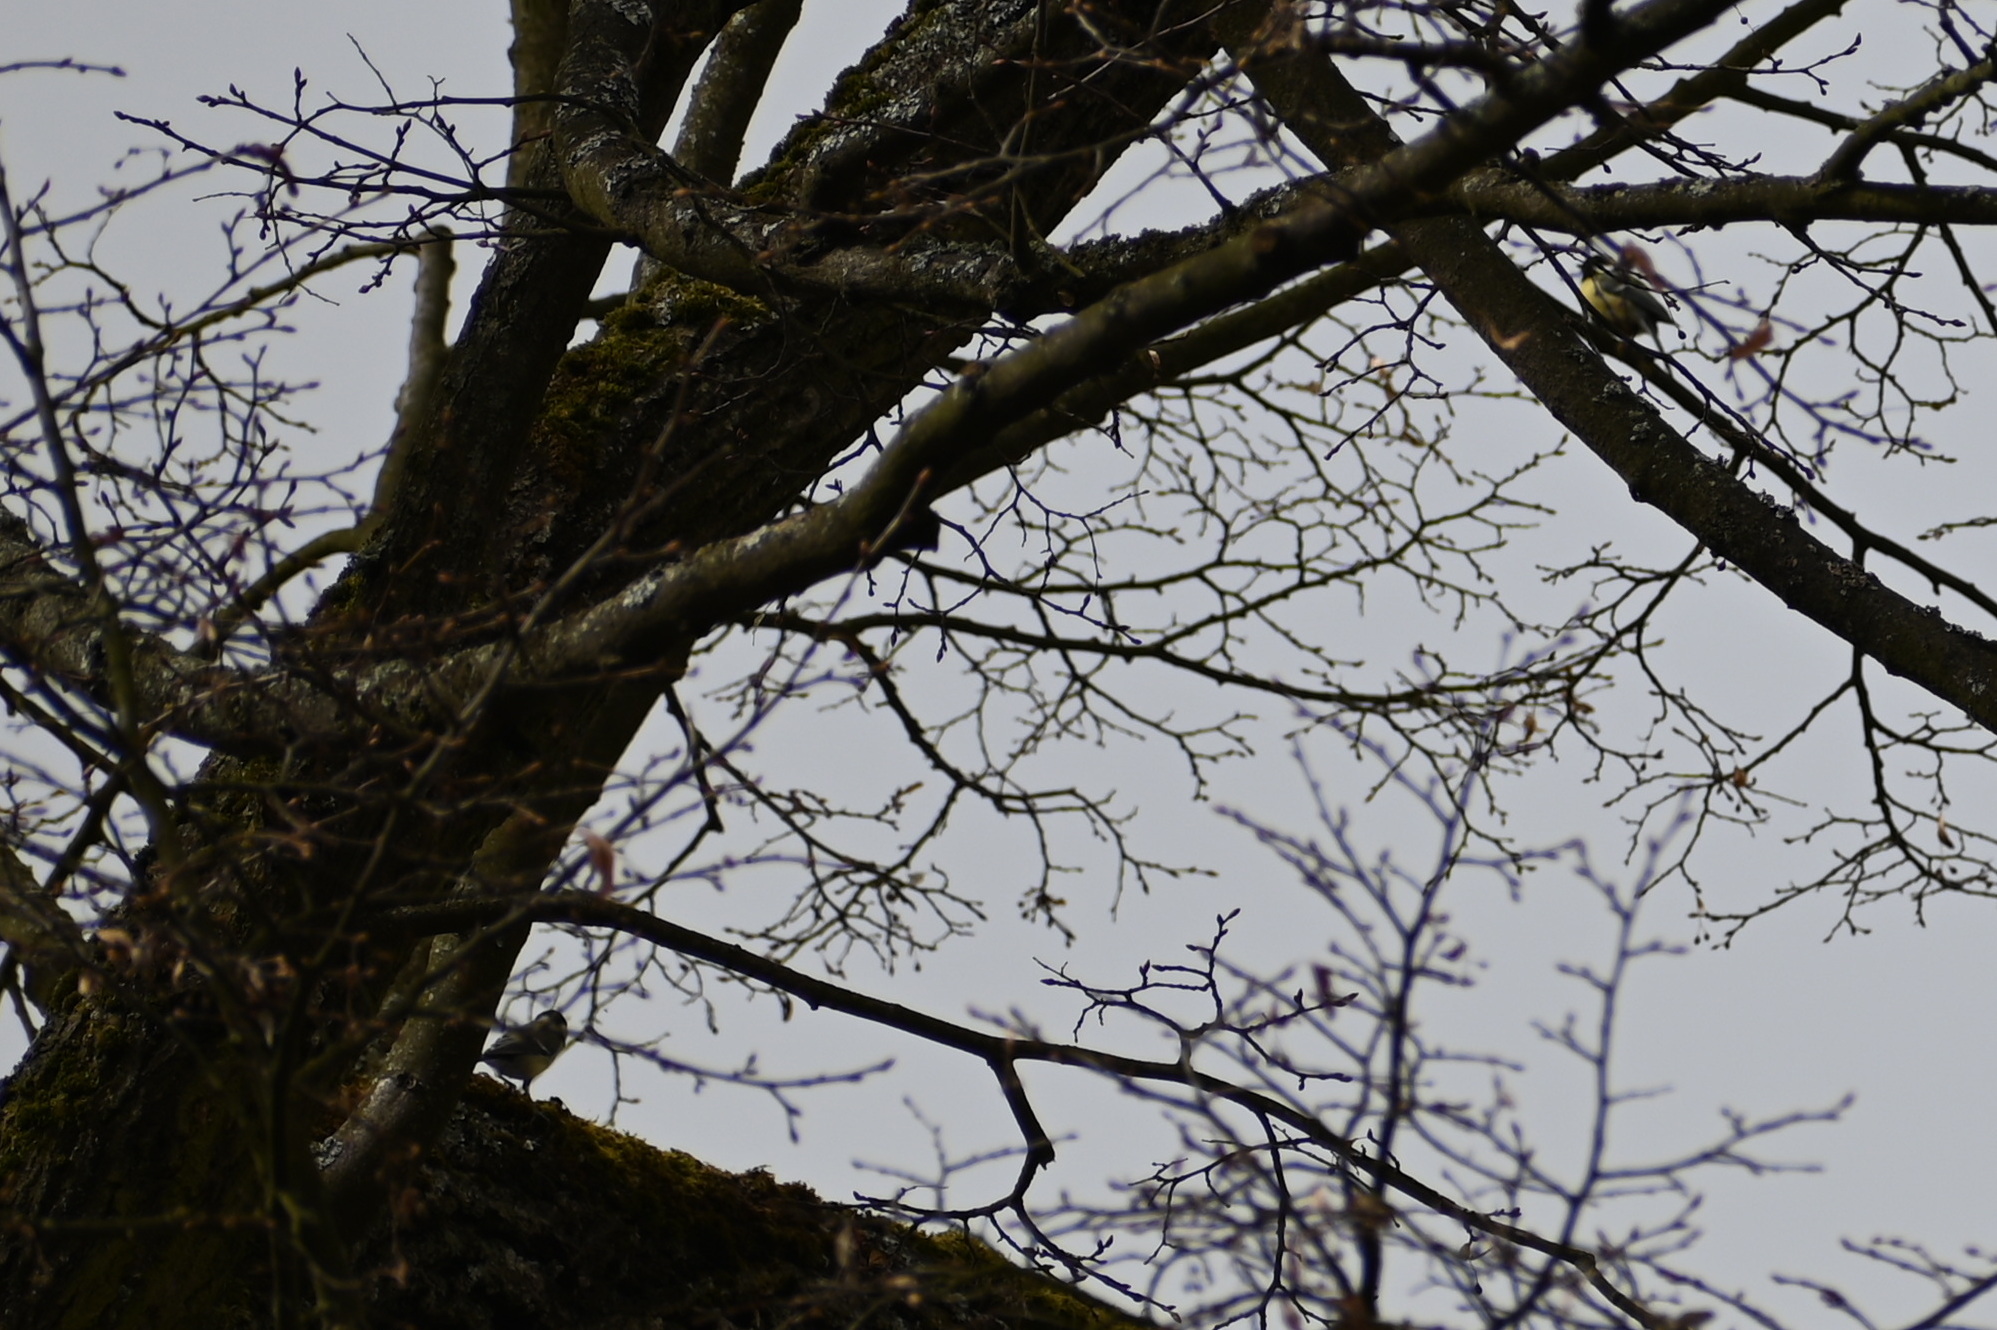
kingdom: Animalia
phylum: Chordata
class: Aves
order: Passeriformes
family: Paridae
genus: Parus
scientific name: Parus major
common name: Great tit
